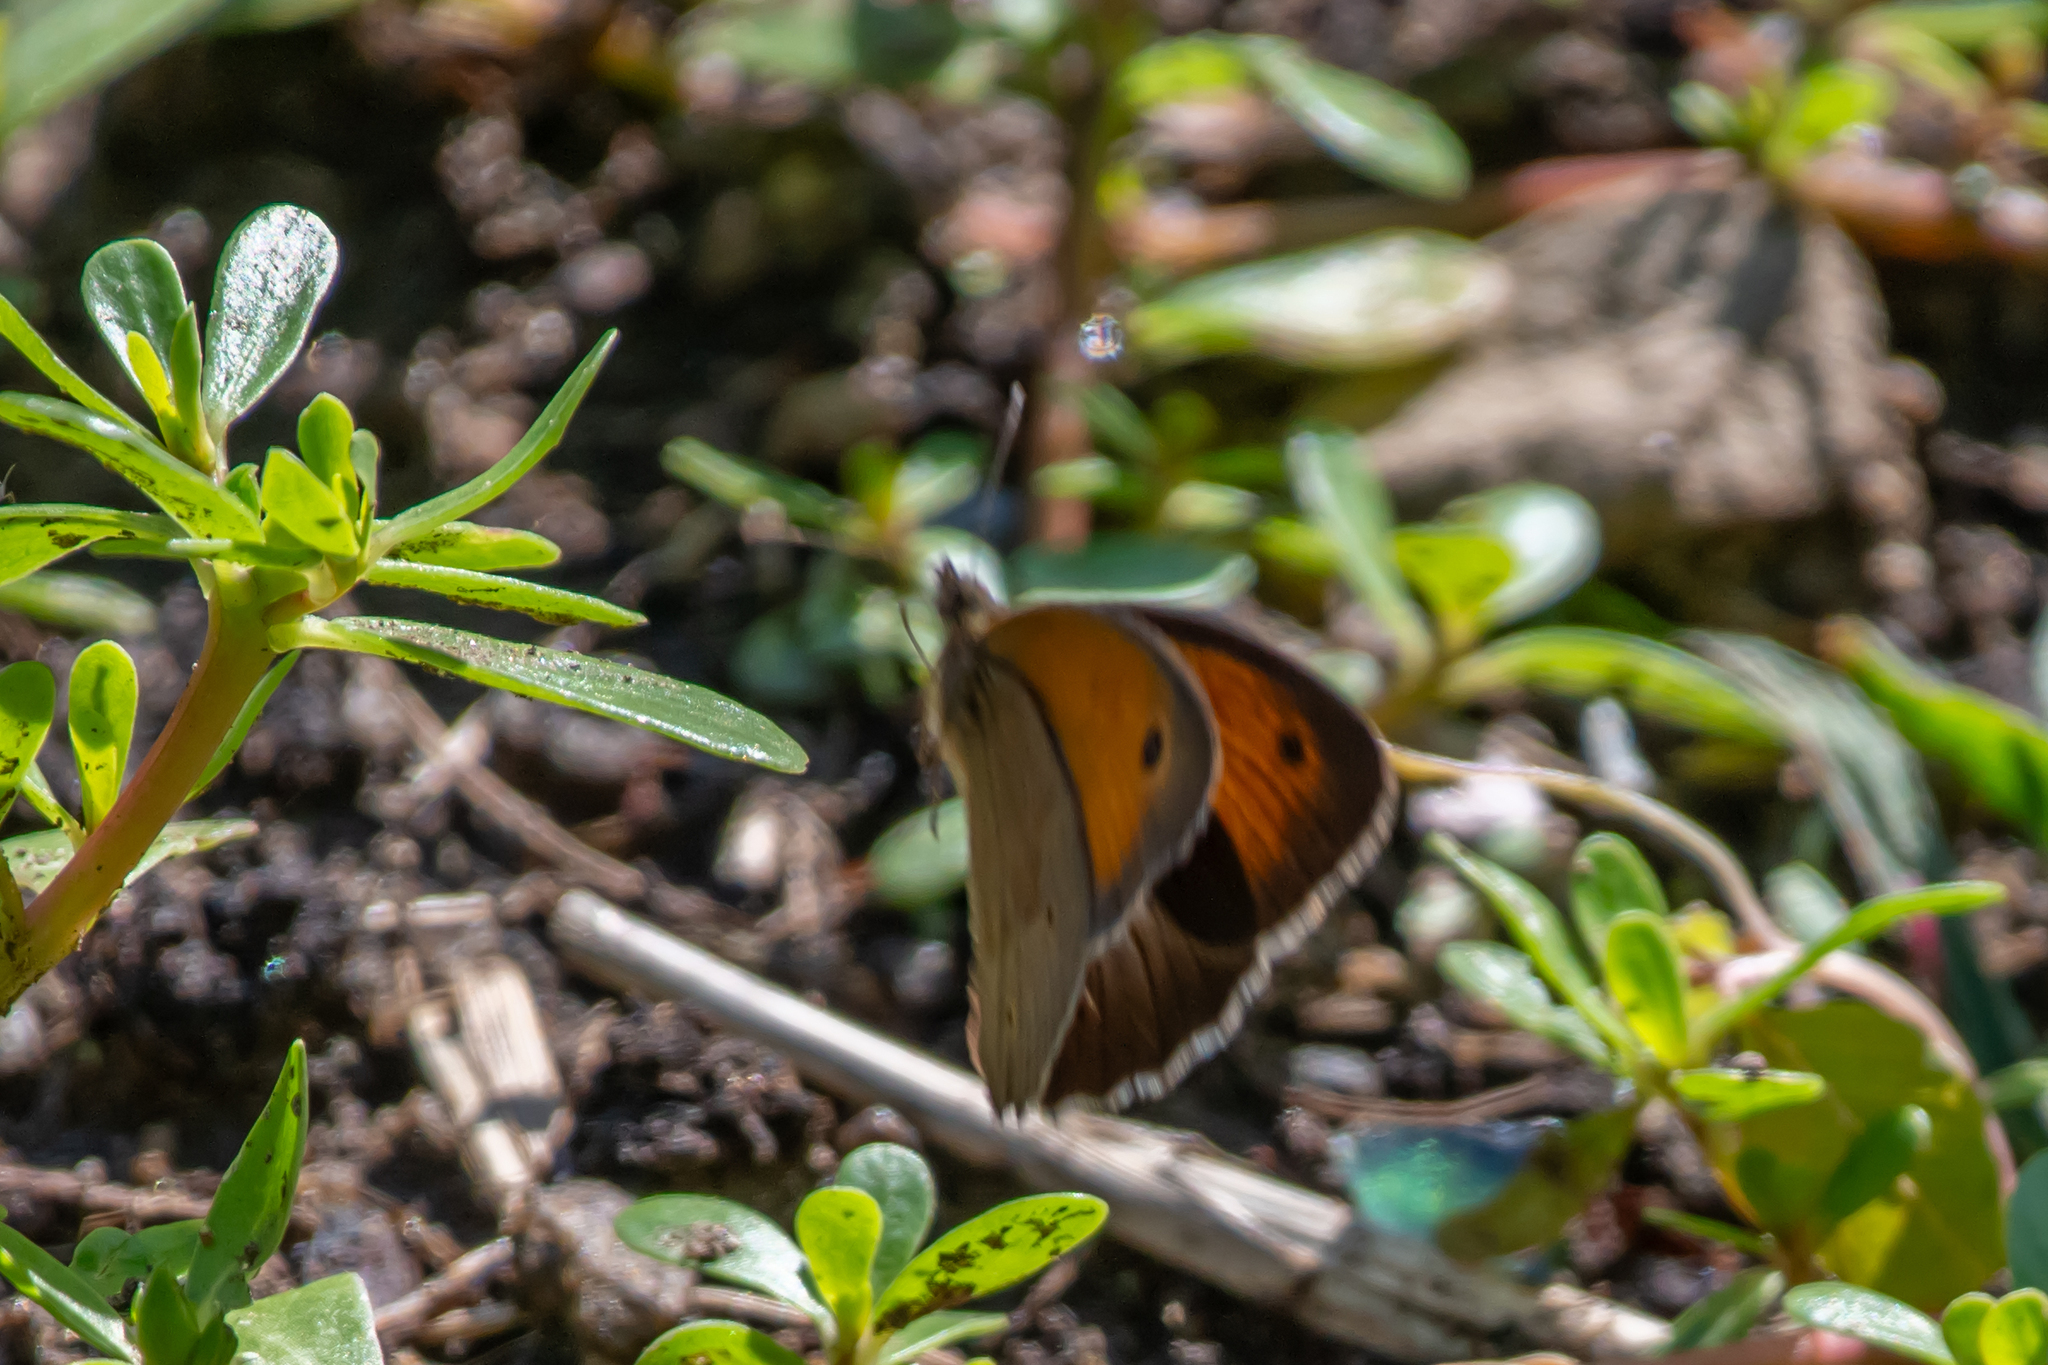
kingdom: Animalia
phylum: Arthropoda
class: Insecta
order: Lepidoptera
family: Nymphalidae
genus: Maniola
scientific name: Maniola jurtina
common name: Meadow brown
